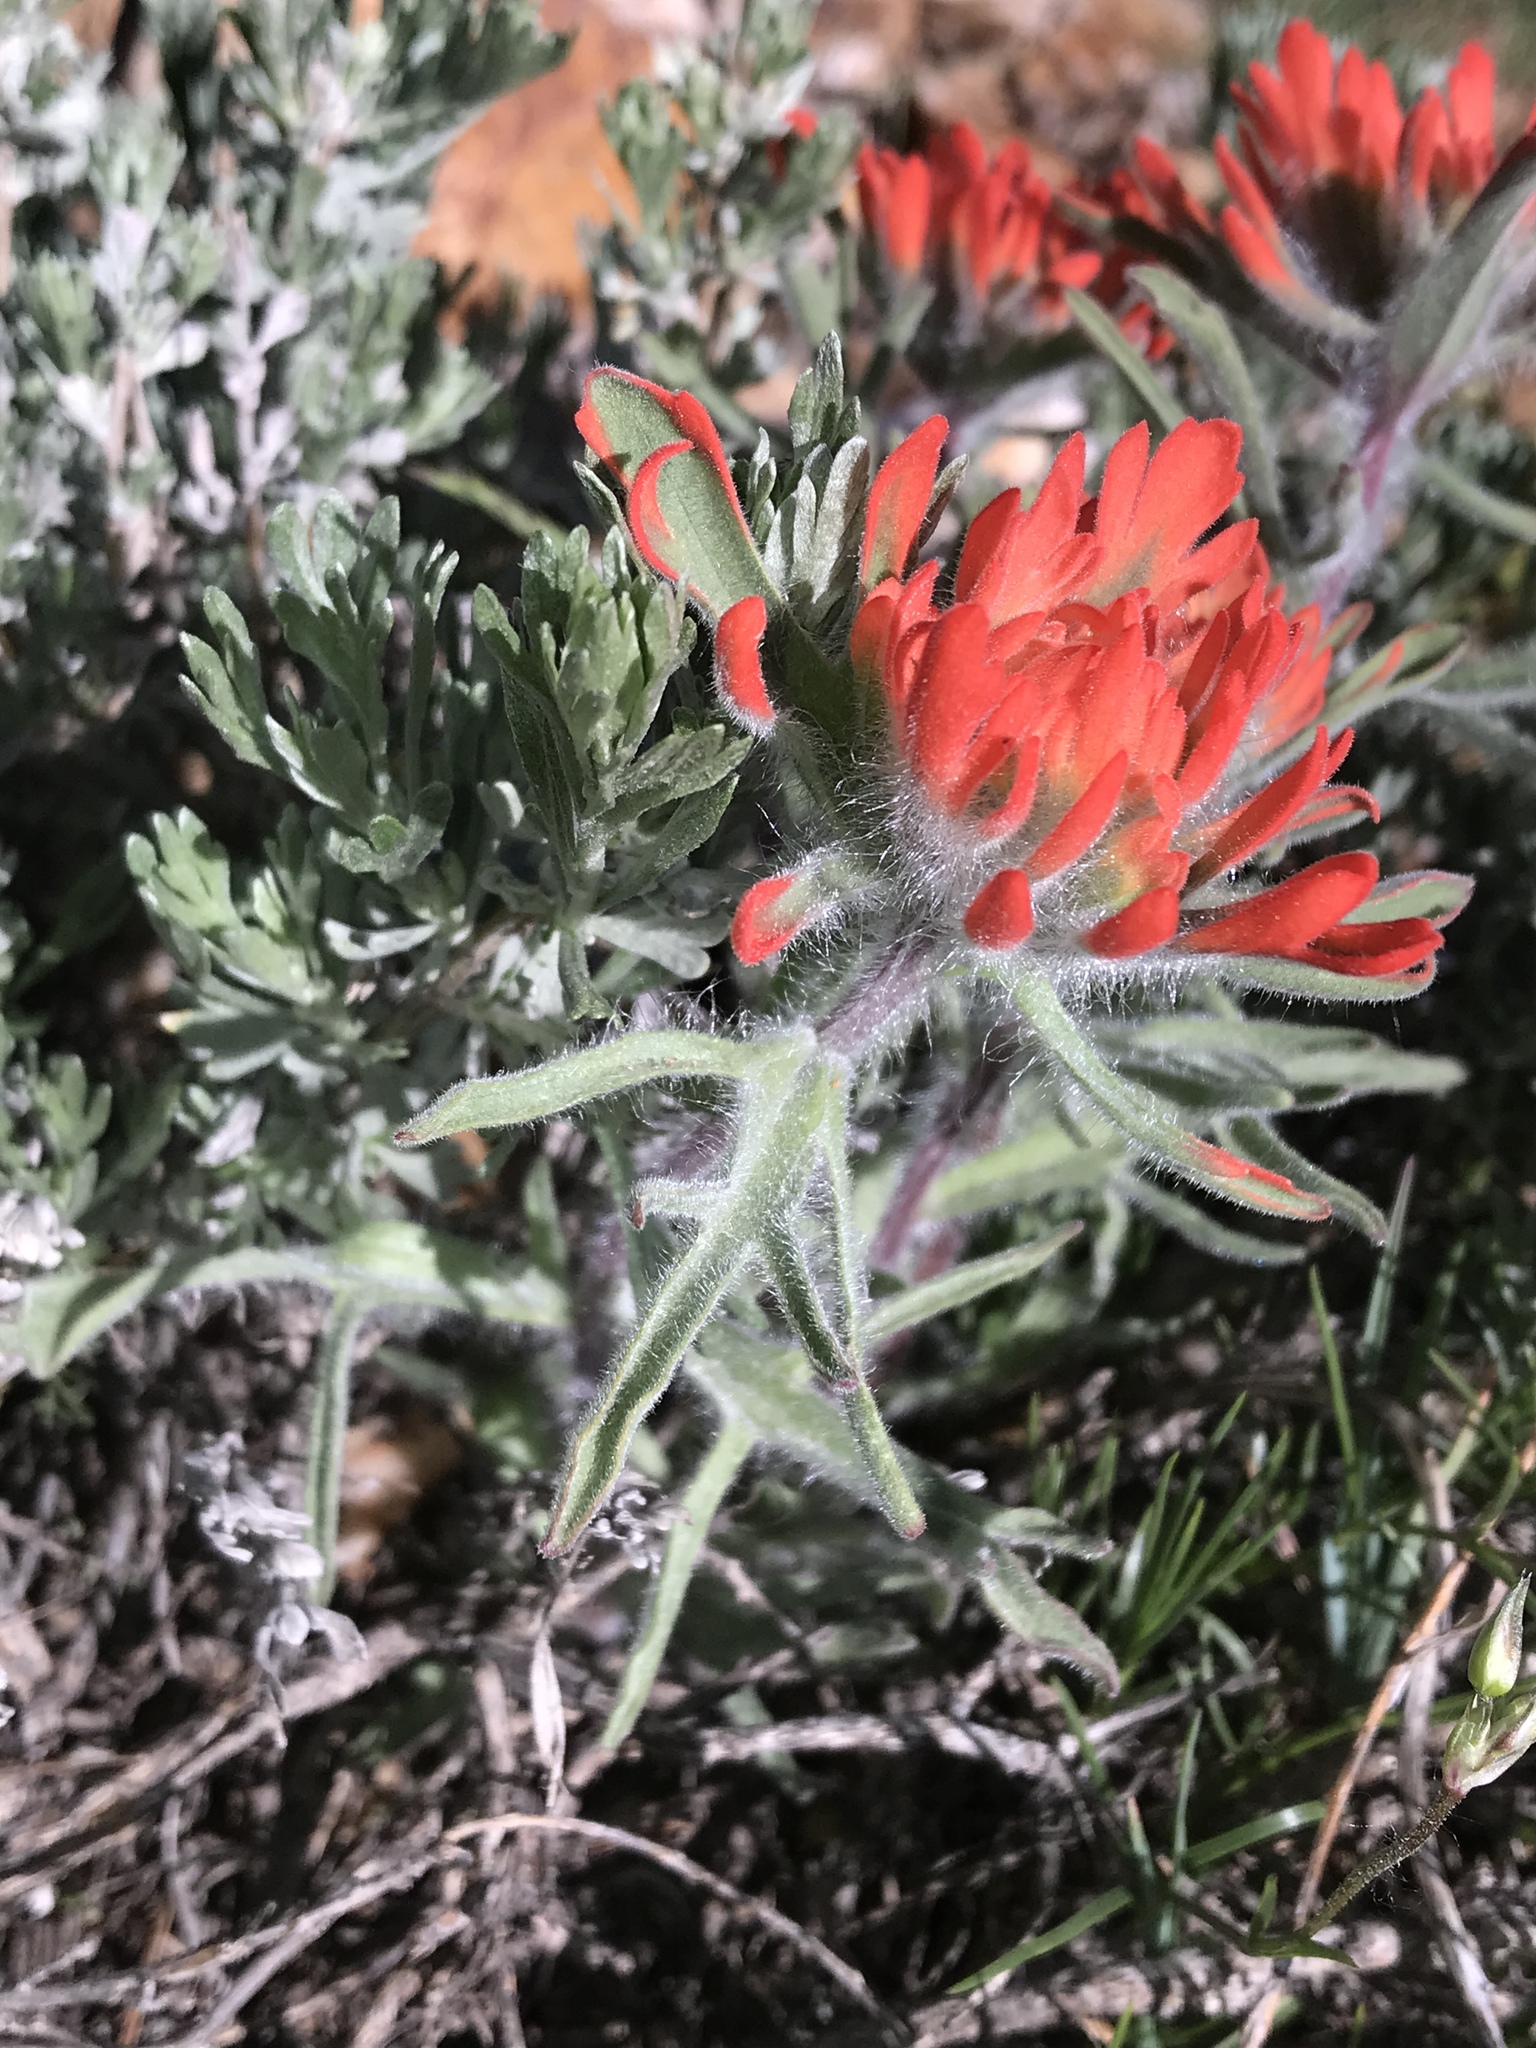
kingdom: Plantae
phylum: Tracheophyta
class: Magnoliopsida
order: Lamiales
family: Orobanchaceae
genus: Castilleja
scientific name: Castilleja chromosa
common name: Desert paintbrush
